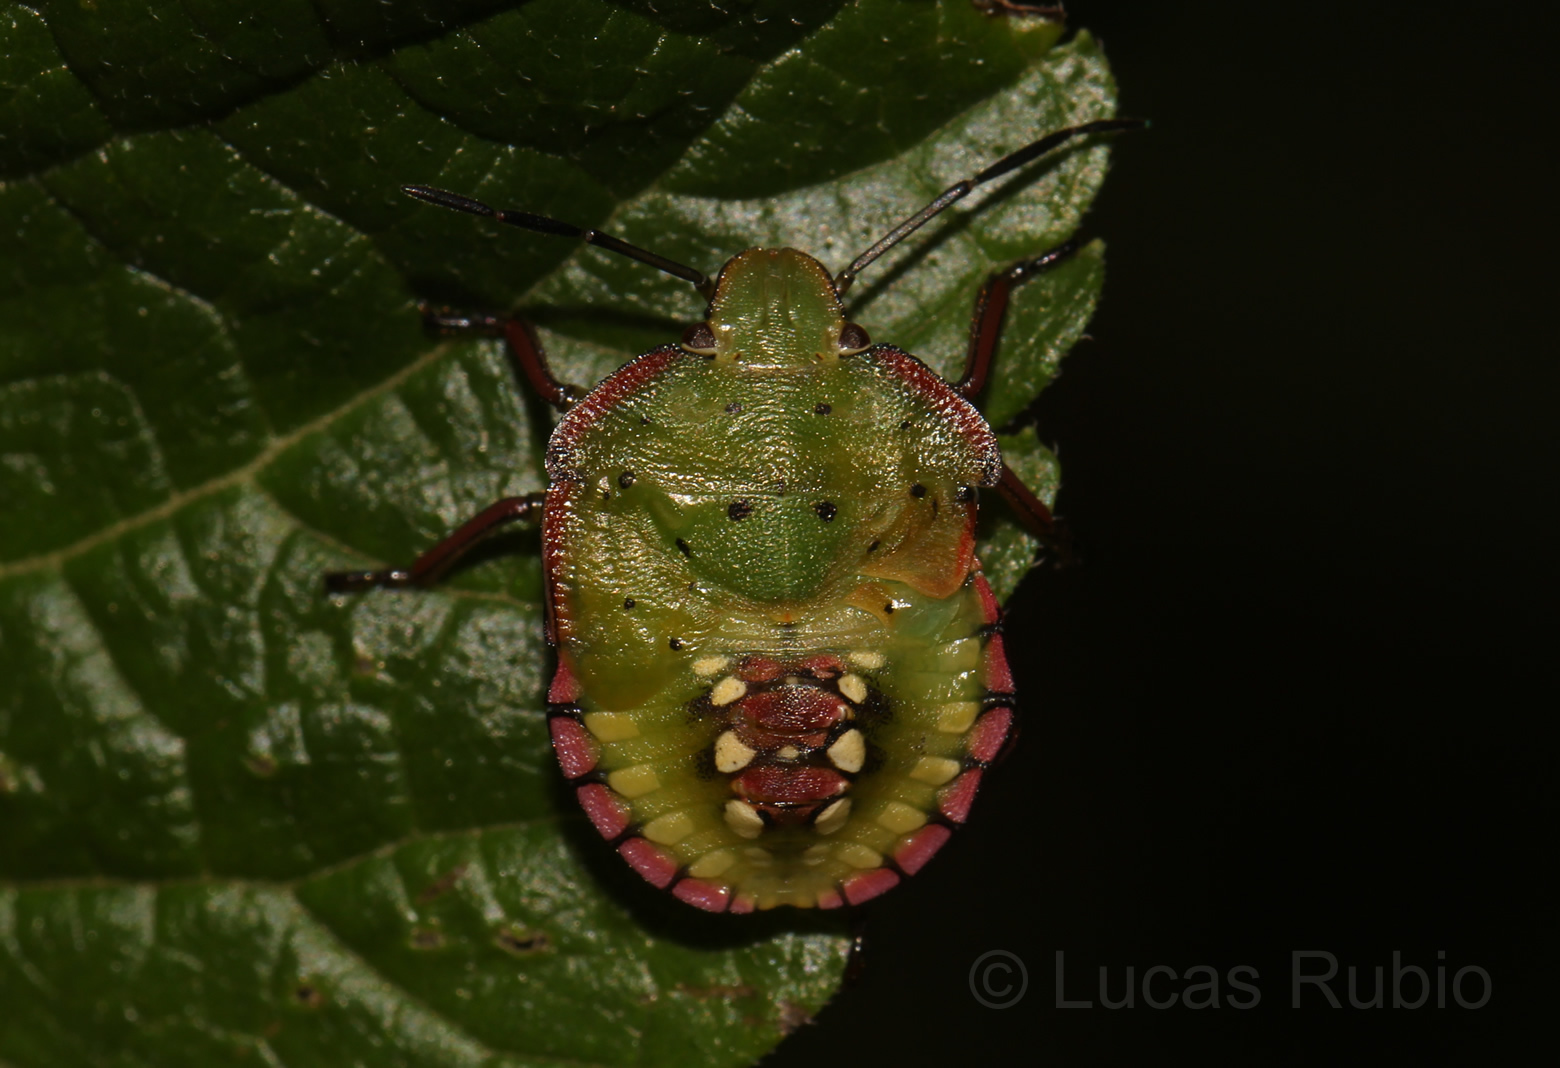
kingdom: Animalia
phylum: Arthropoda
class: Insecta
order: Hemiptera
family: Pentatomidae
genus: Nezara
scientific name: Nezara viridula
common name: Southern green stink bug
